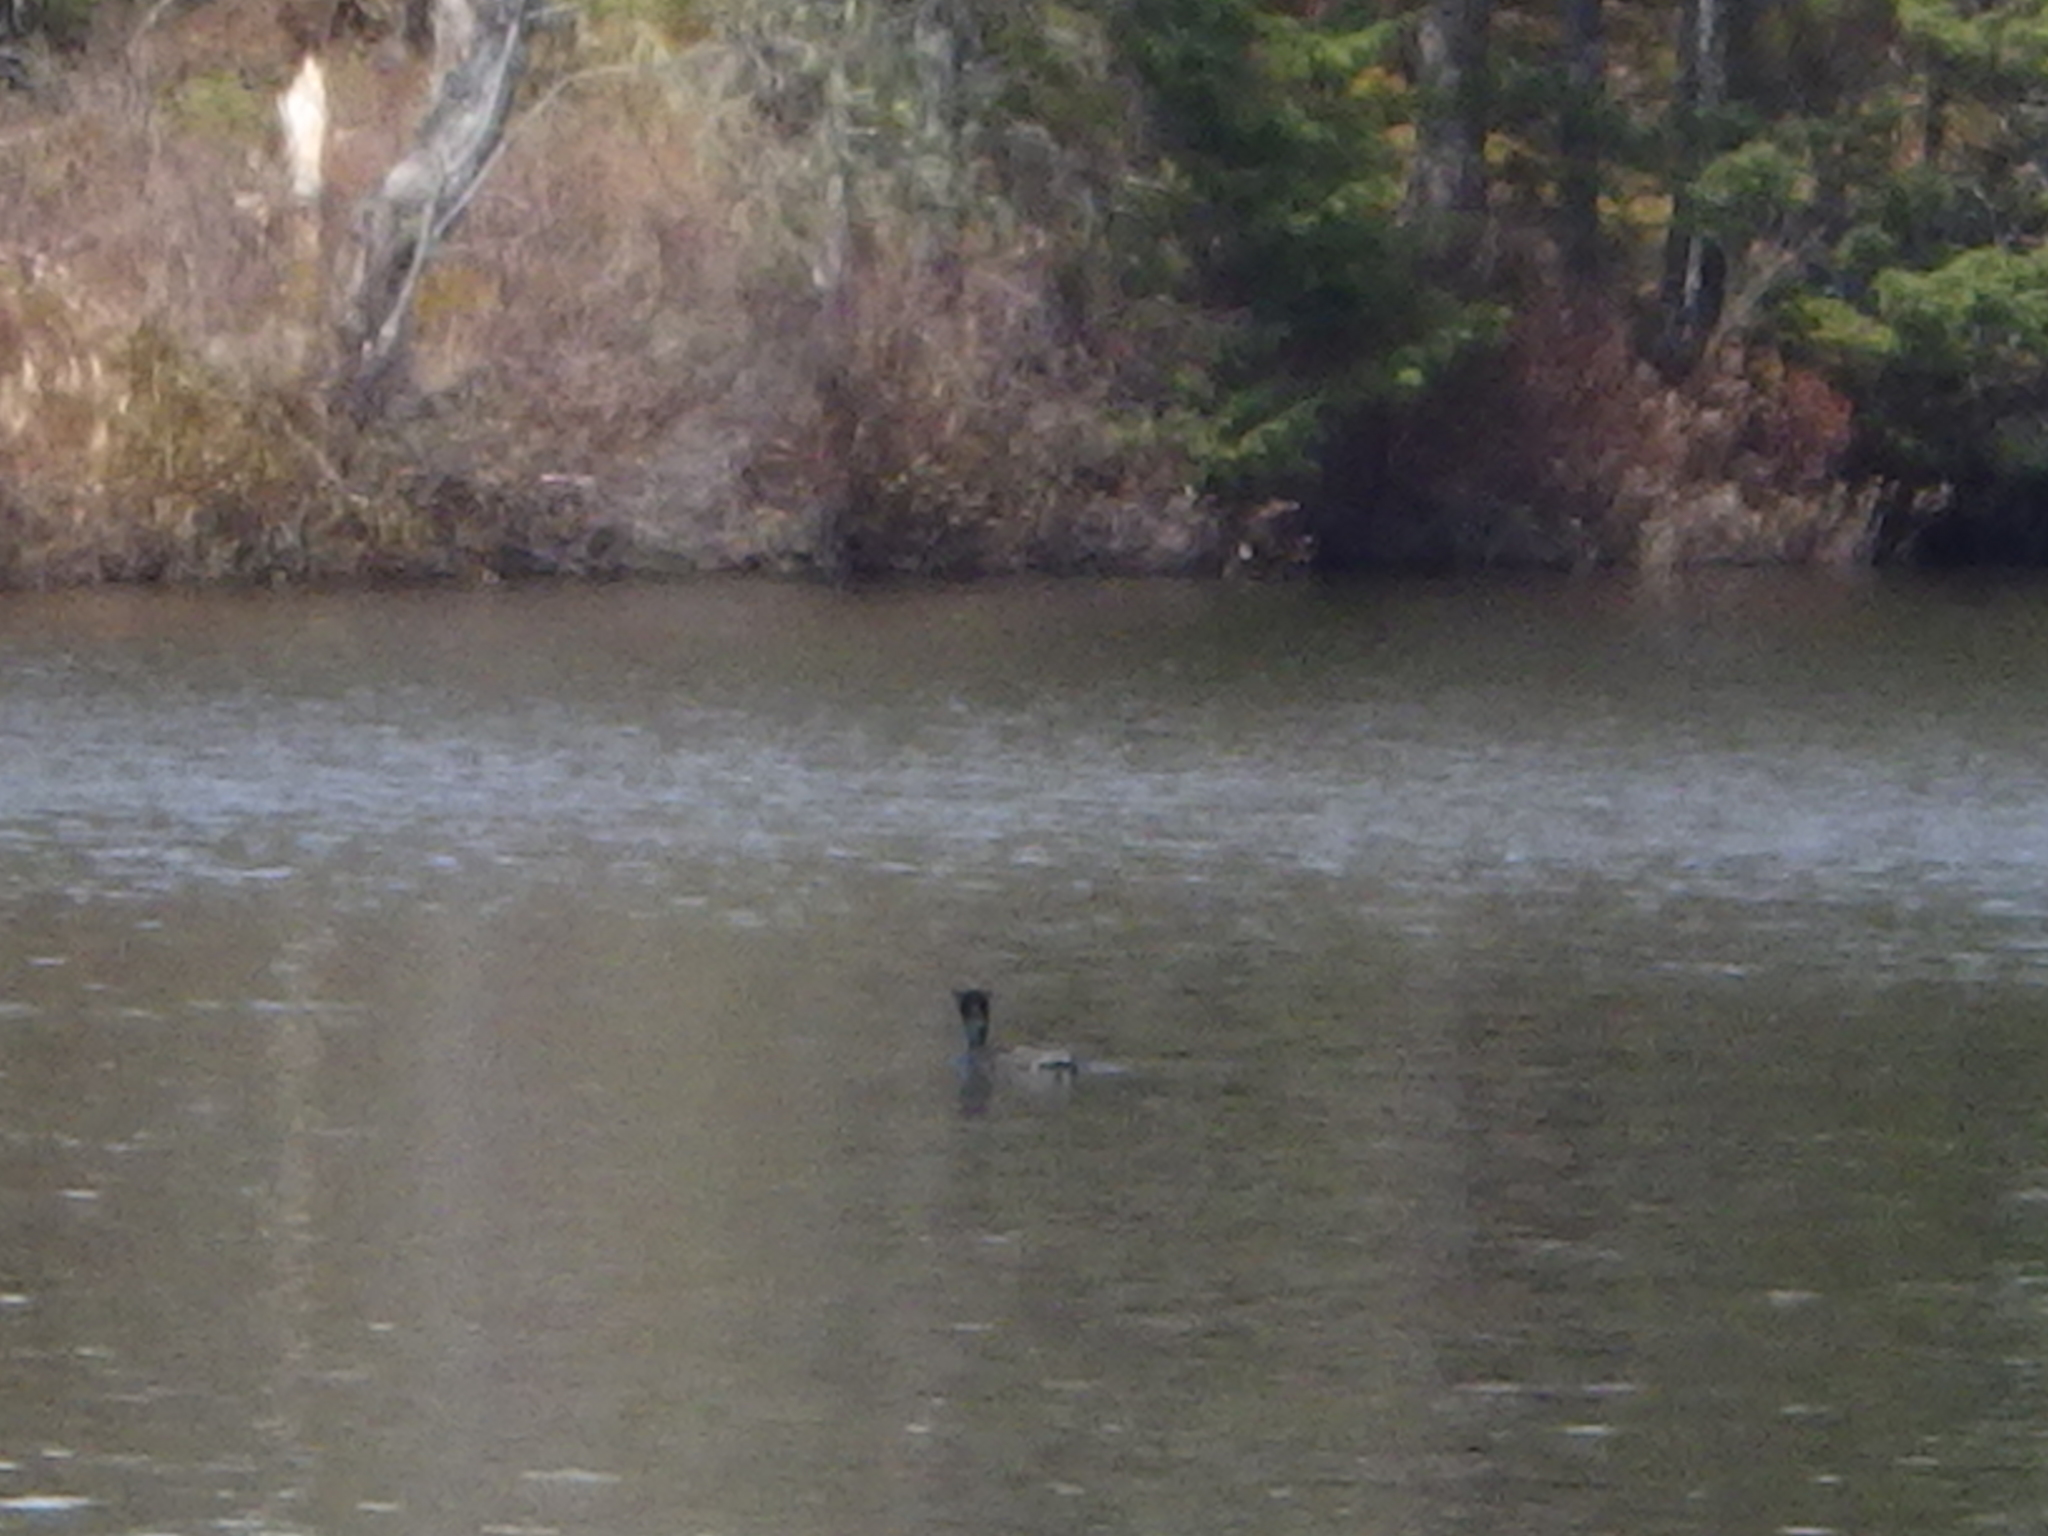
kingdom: Animalia
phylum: Chordata
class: Aves
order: Suliformes
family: Phalacrocoracidae
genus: Phalacrocorax
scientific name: Phalacrocorax auritus
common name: Double-crested cormorant
